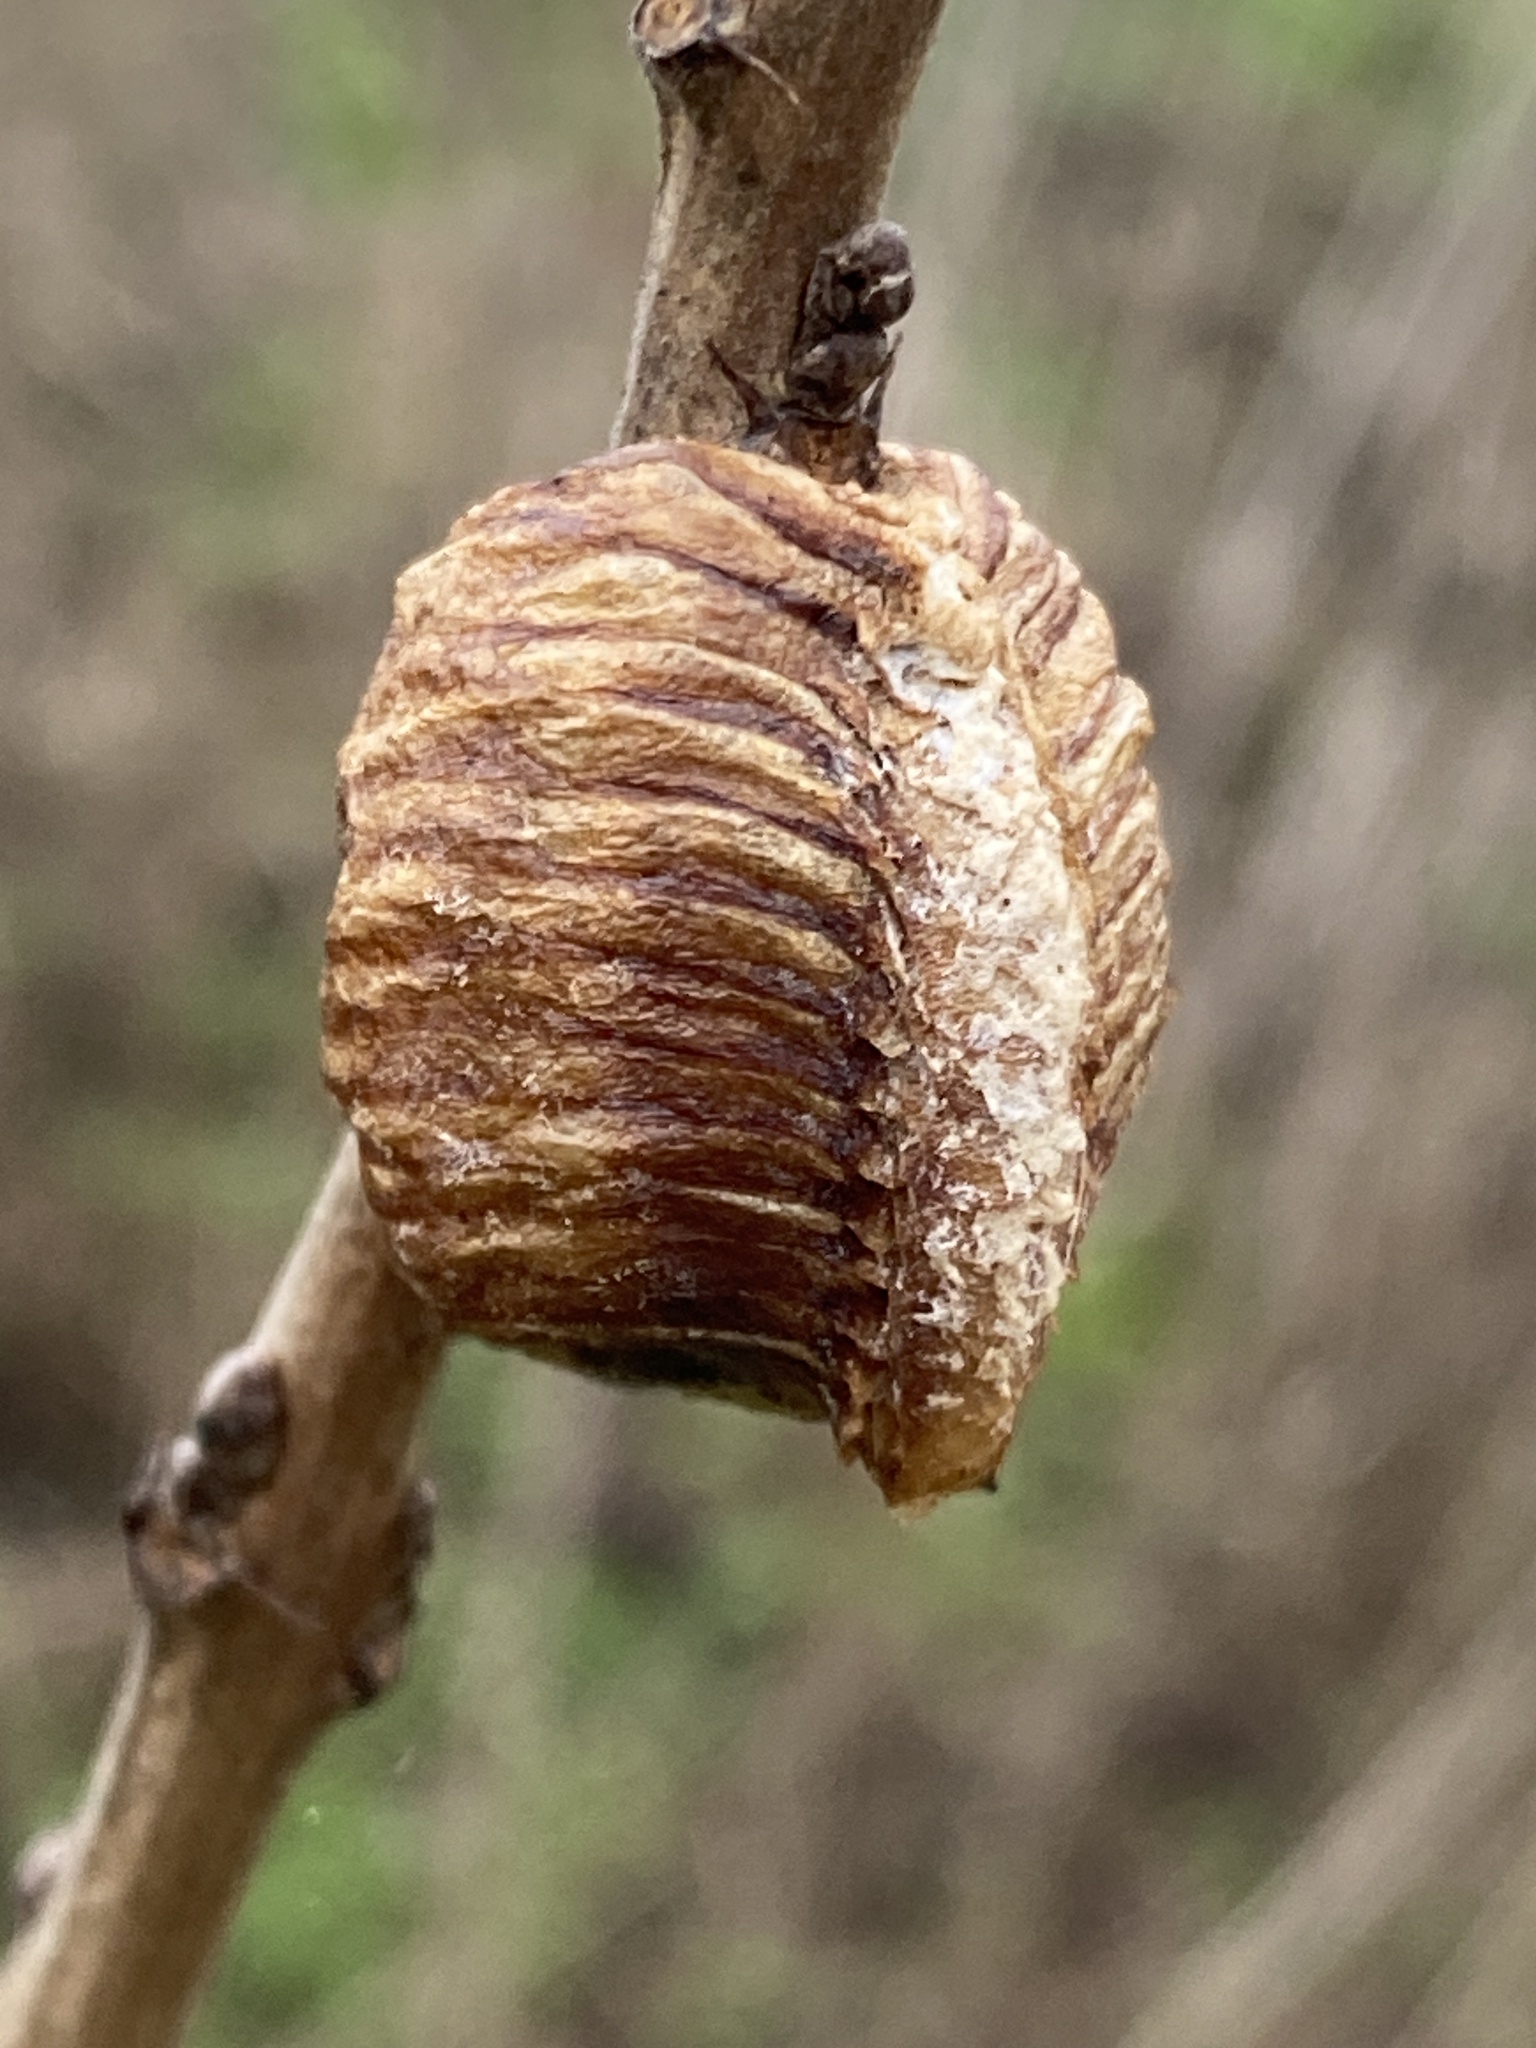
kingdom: Animalia
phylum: Arthropoda
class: Insecta
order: Mantodea
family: Mantidae
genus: Hierodula
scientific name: Hierodula transcaucasica
